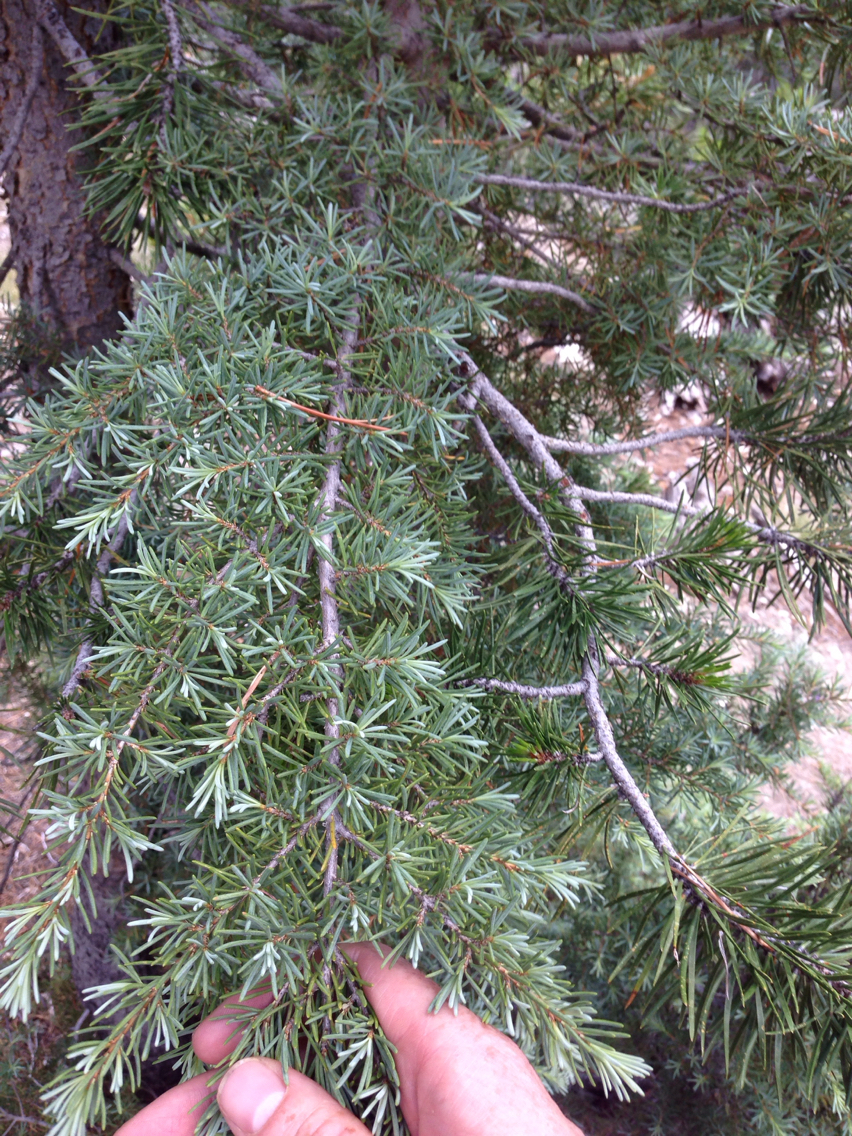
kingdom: Plantae
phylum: Tracheophyta
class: Pinopsida
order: Pinales
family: Pinaceae
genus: Tsuga
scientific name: Tsuga mertensiana
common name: Mountain hemlock
